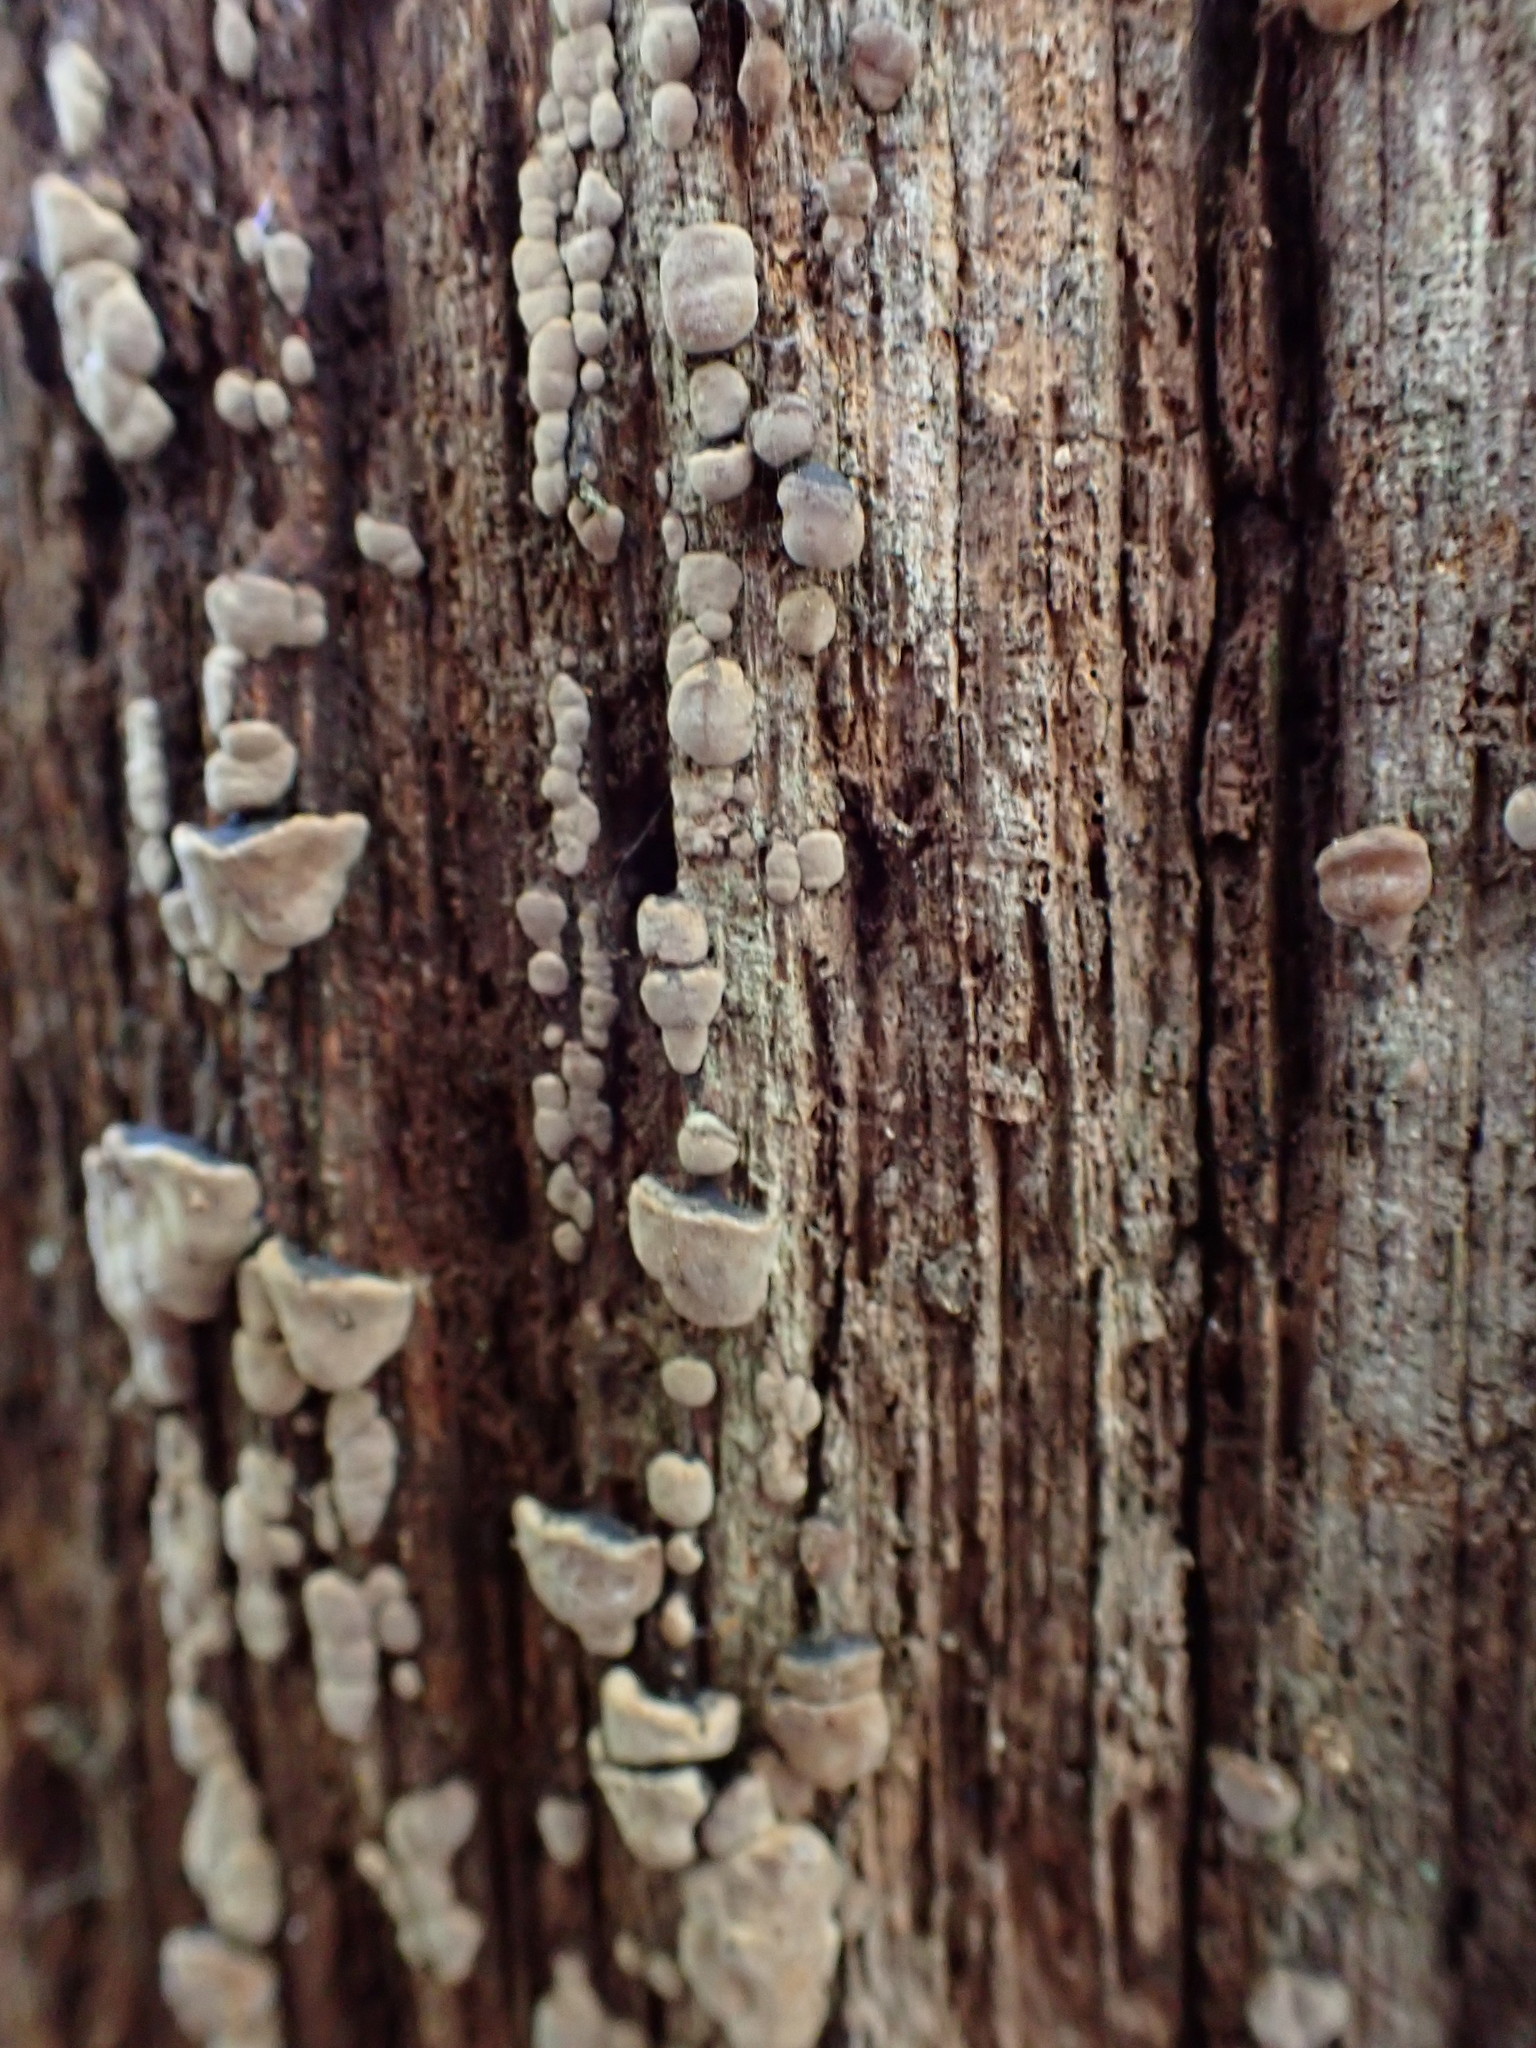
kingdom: Fungi
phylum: Basidiomycota
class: Agaricomycetes
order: Russulales
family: Stereaceae
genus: Xylobolus
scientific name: Xylobolus frustulatus
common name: Ceramic parchment
